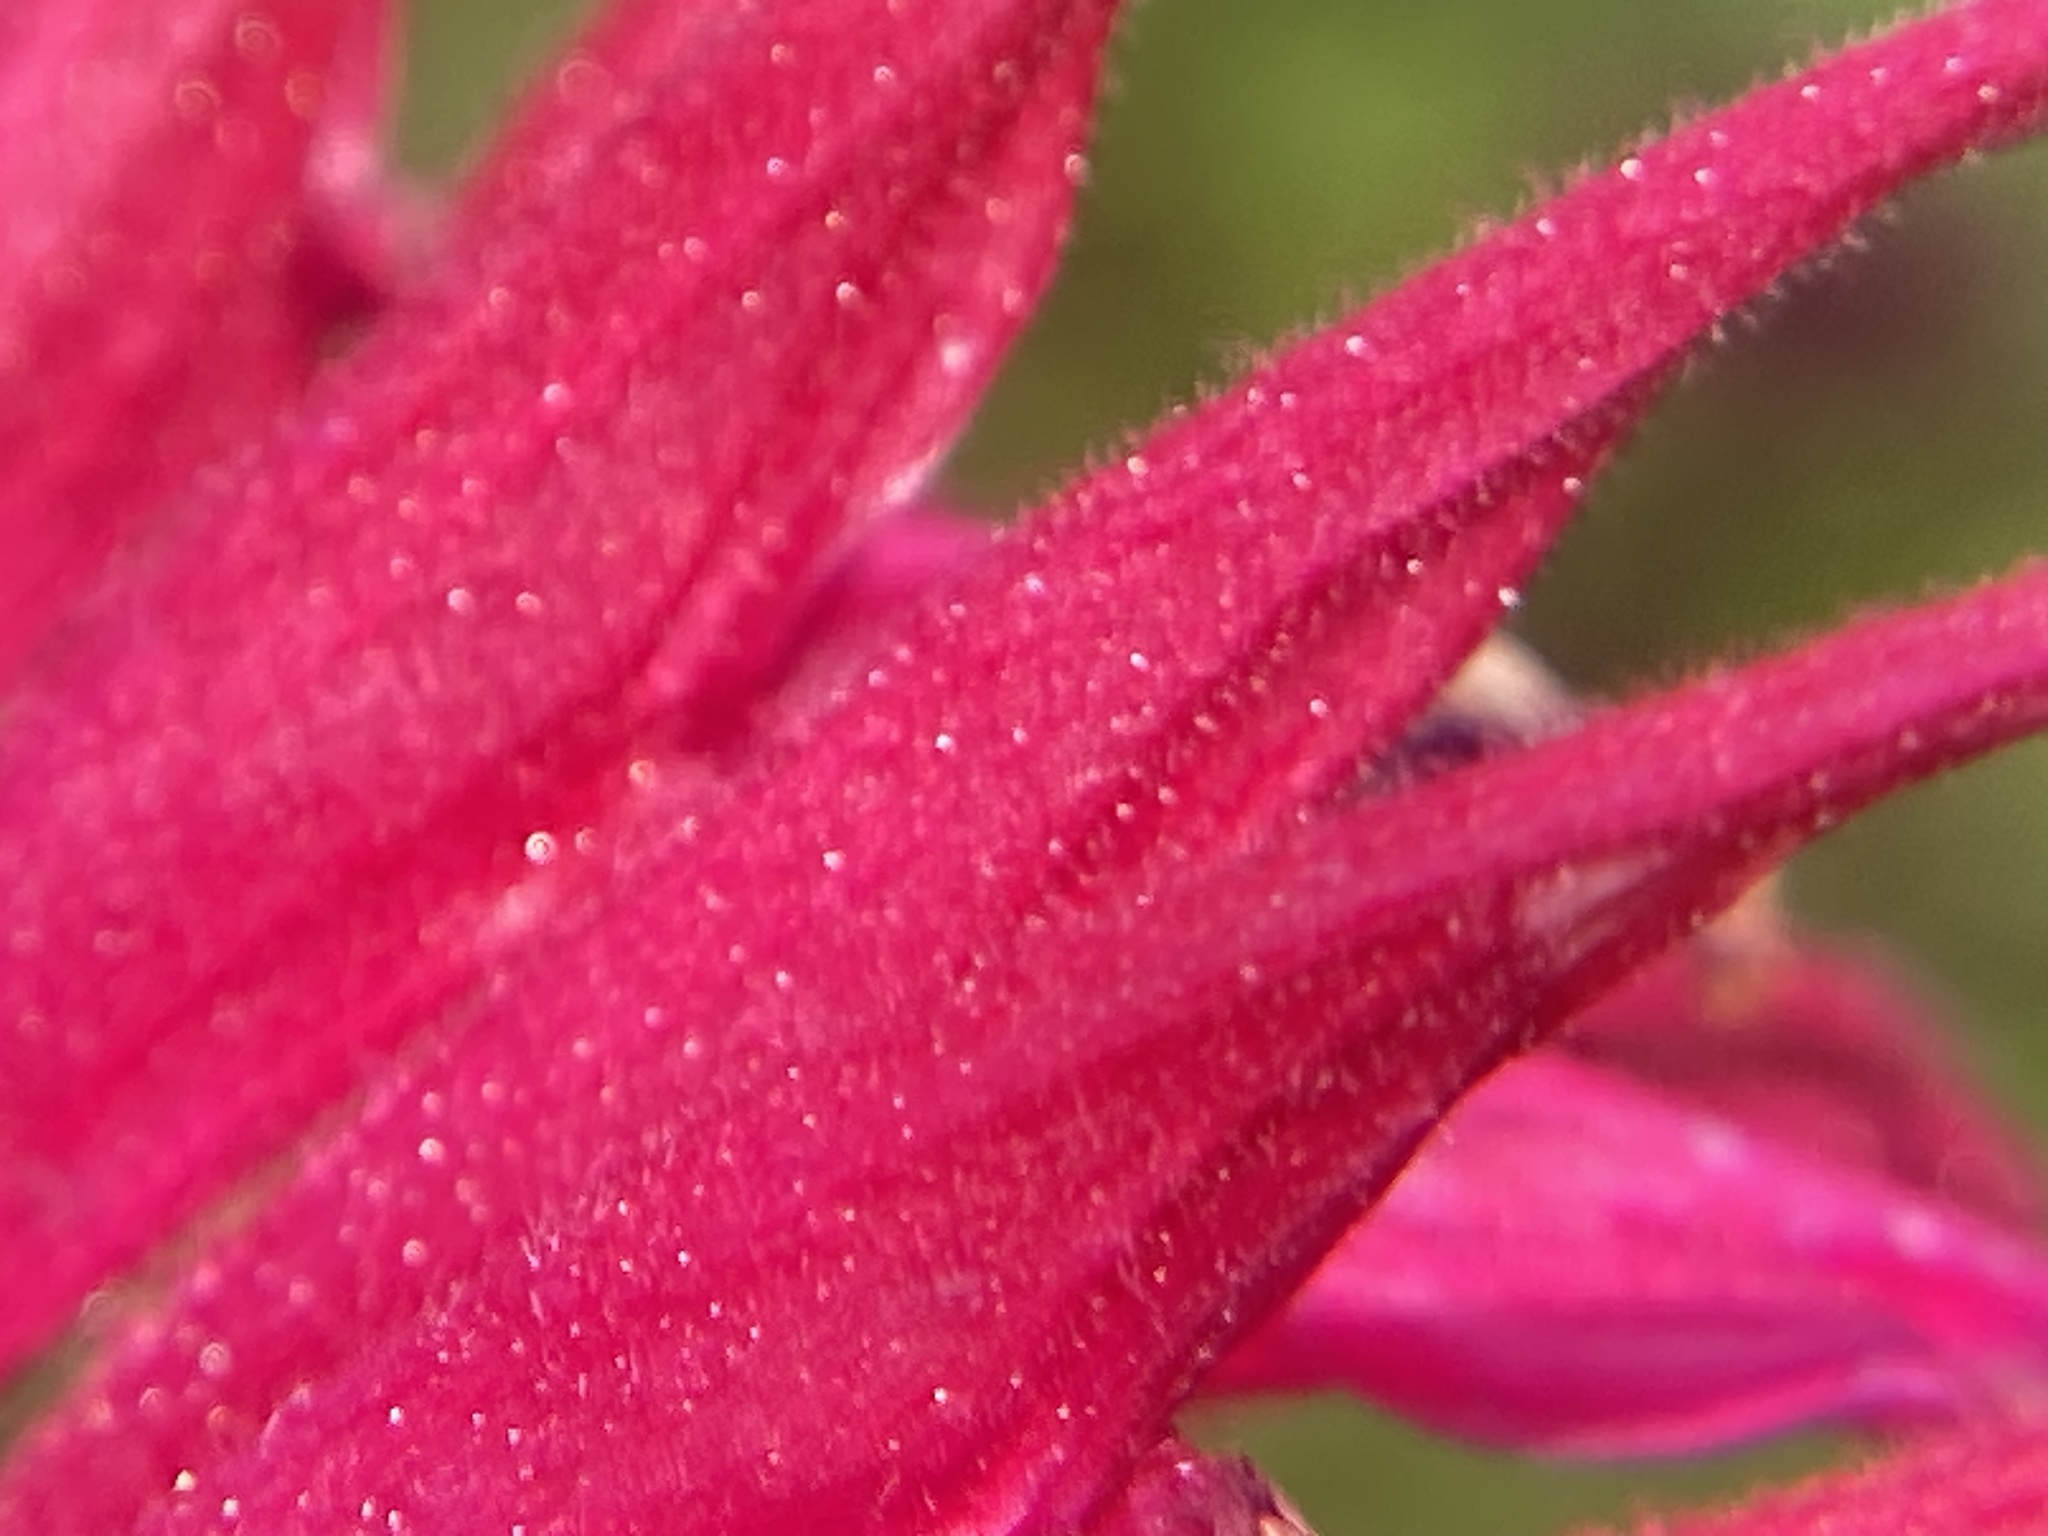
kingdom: Plantae
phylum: Tracheophyta
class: Magnoliopsida
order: Lamiales
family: Lamiaceae
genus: Monarda
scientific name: Monarda didyma
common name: Beebalm
